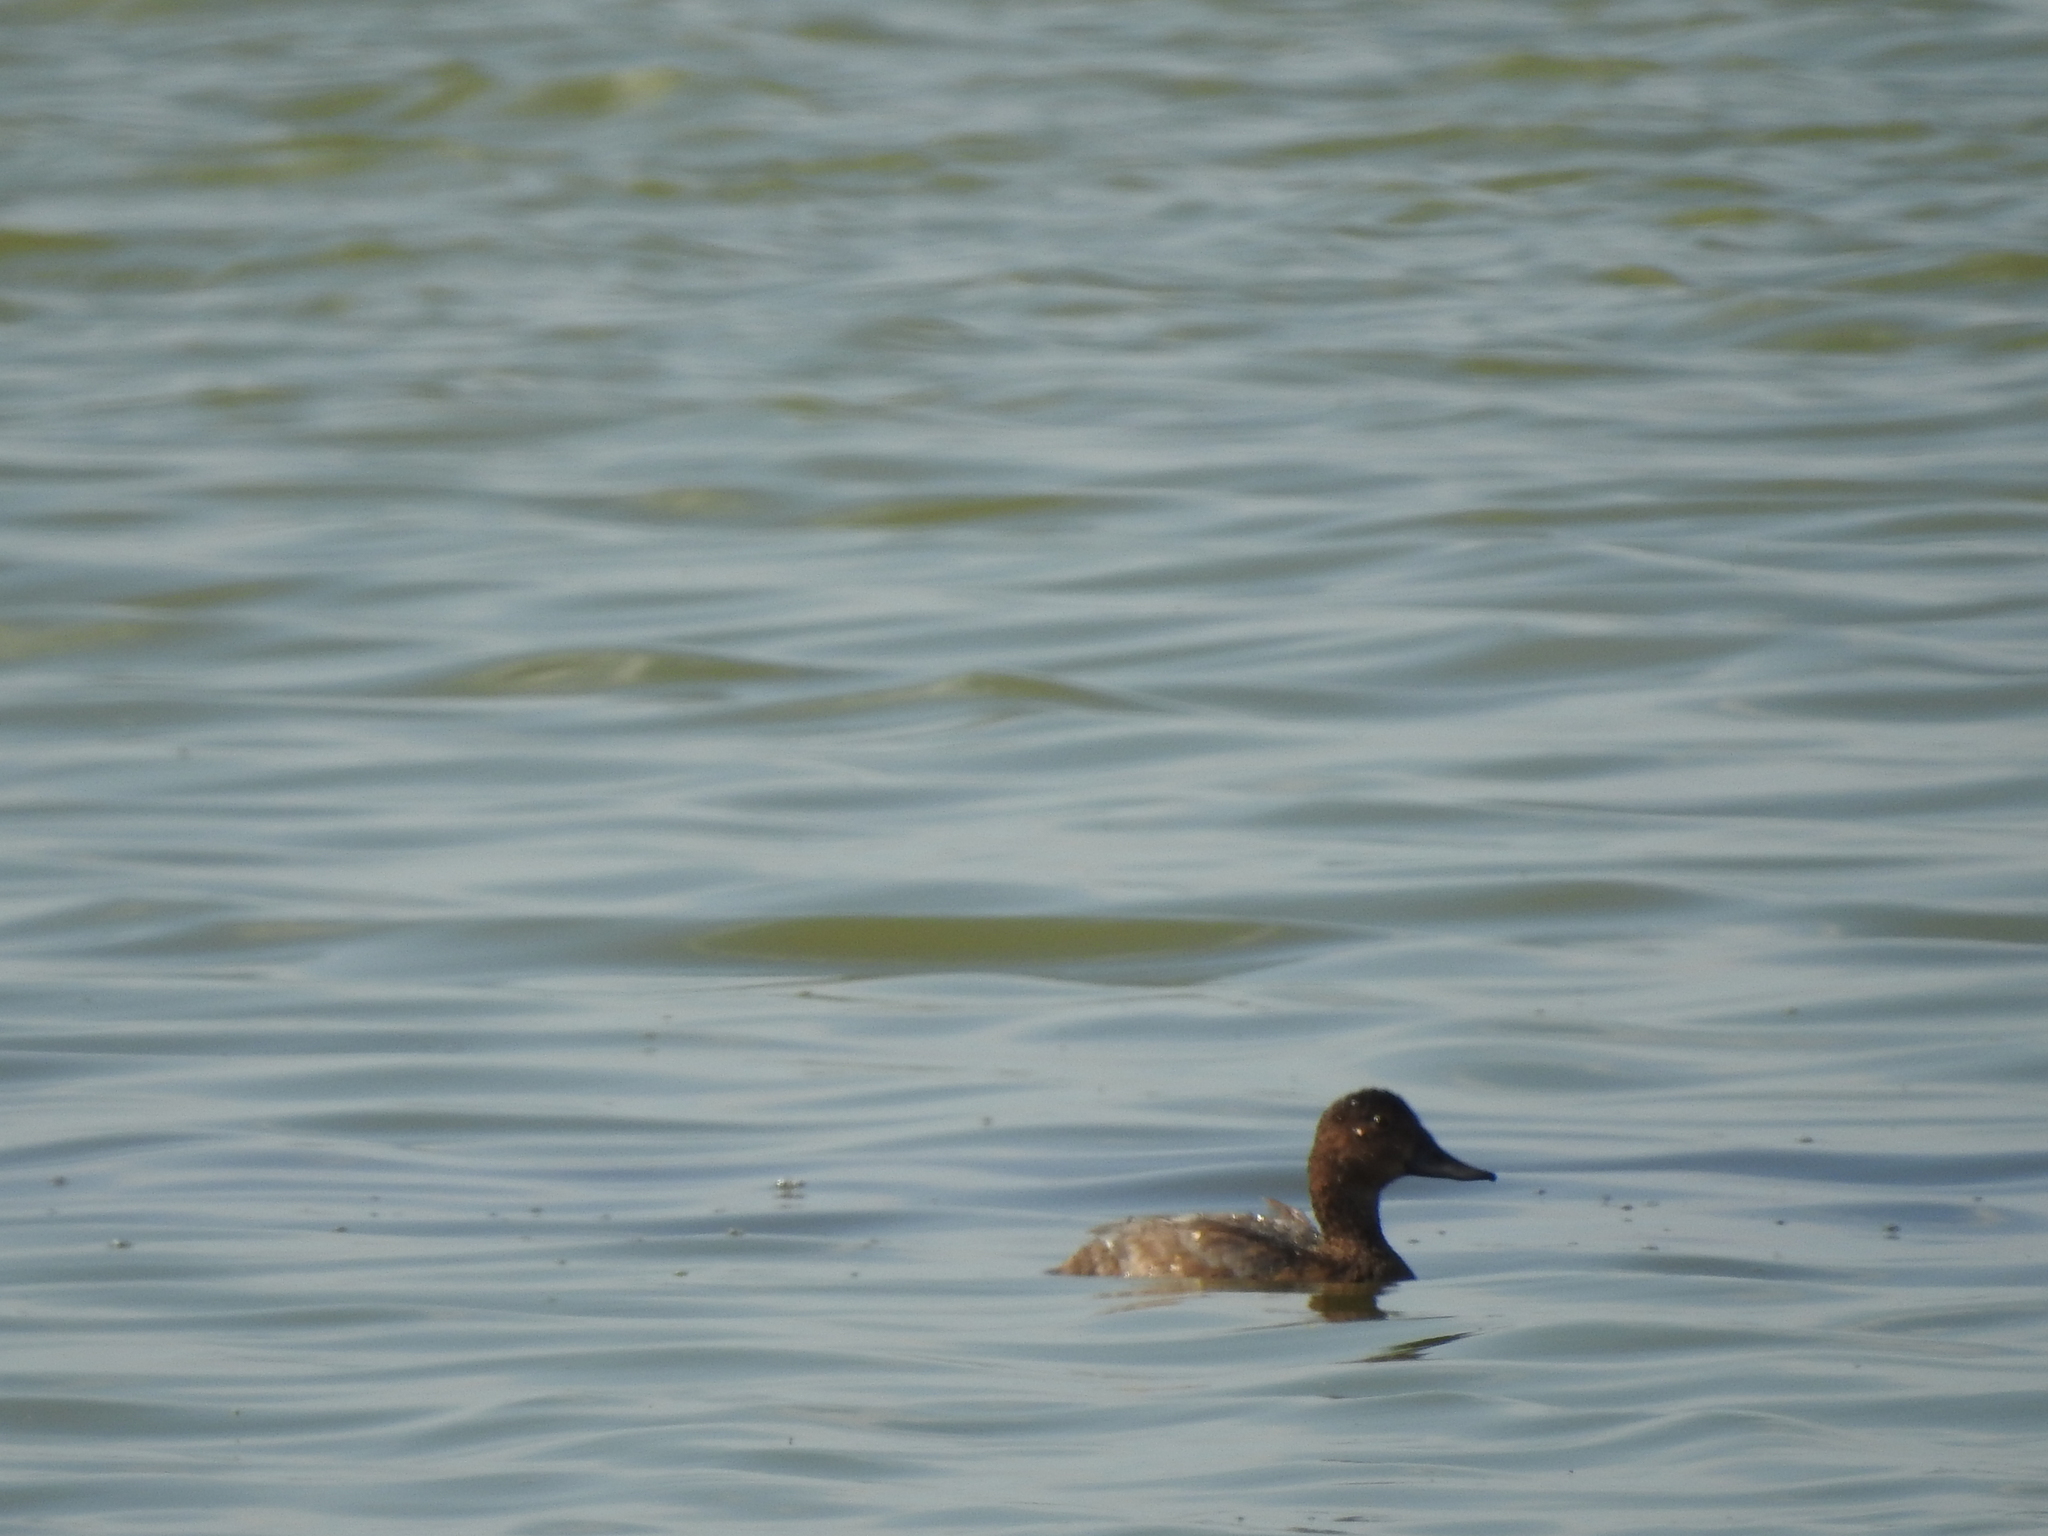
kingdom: Animalia
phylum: Chordata
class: Aves
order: Anseriformes
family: Anatidae
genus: Aythya
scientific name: Aythya ferina
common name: Common pochard
